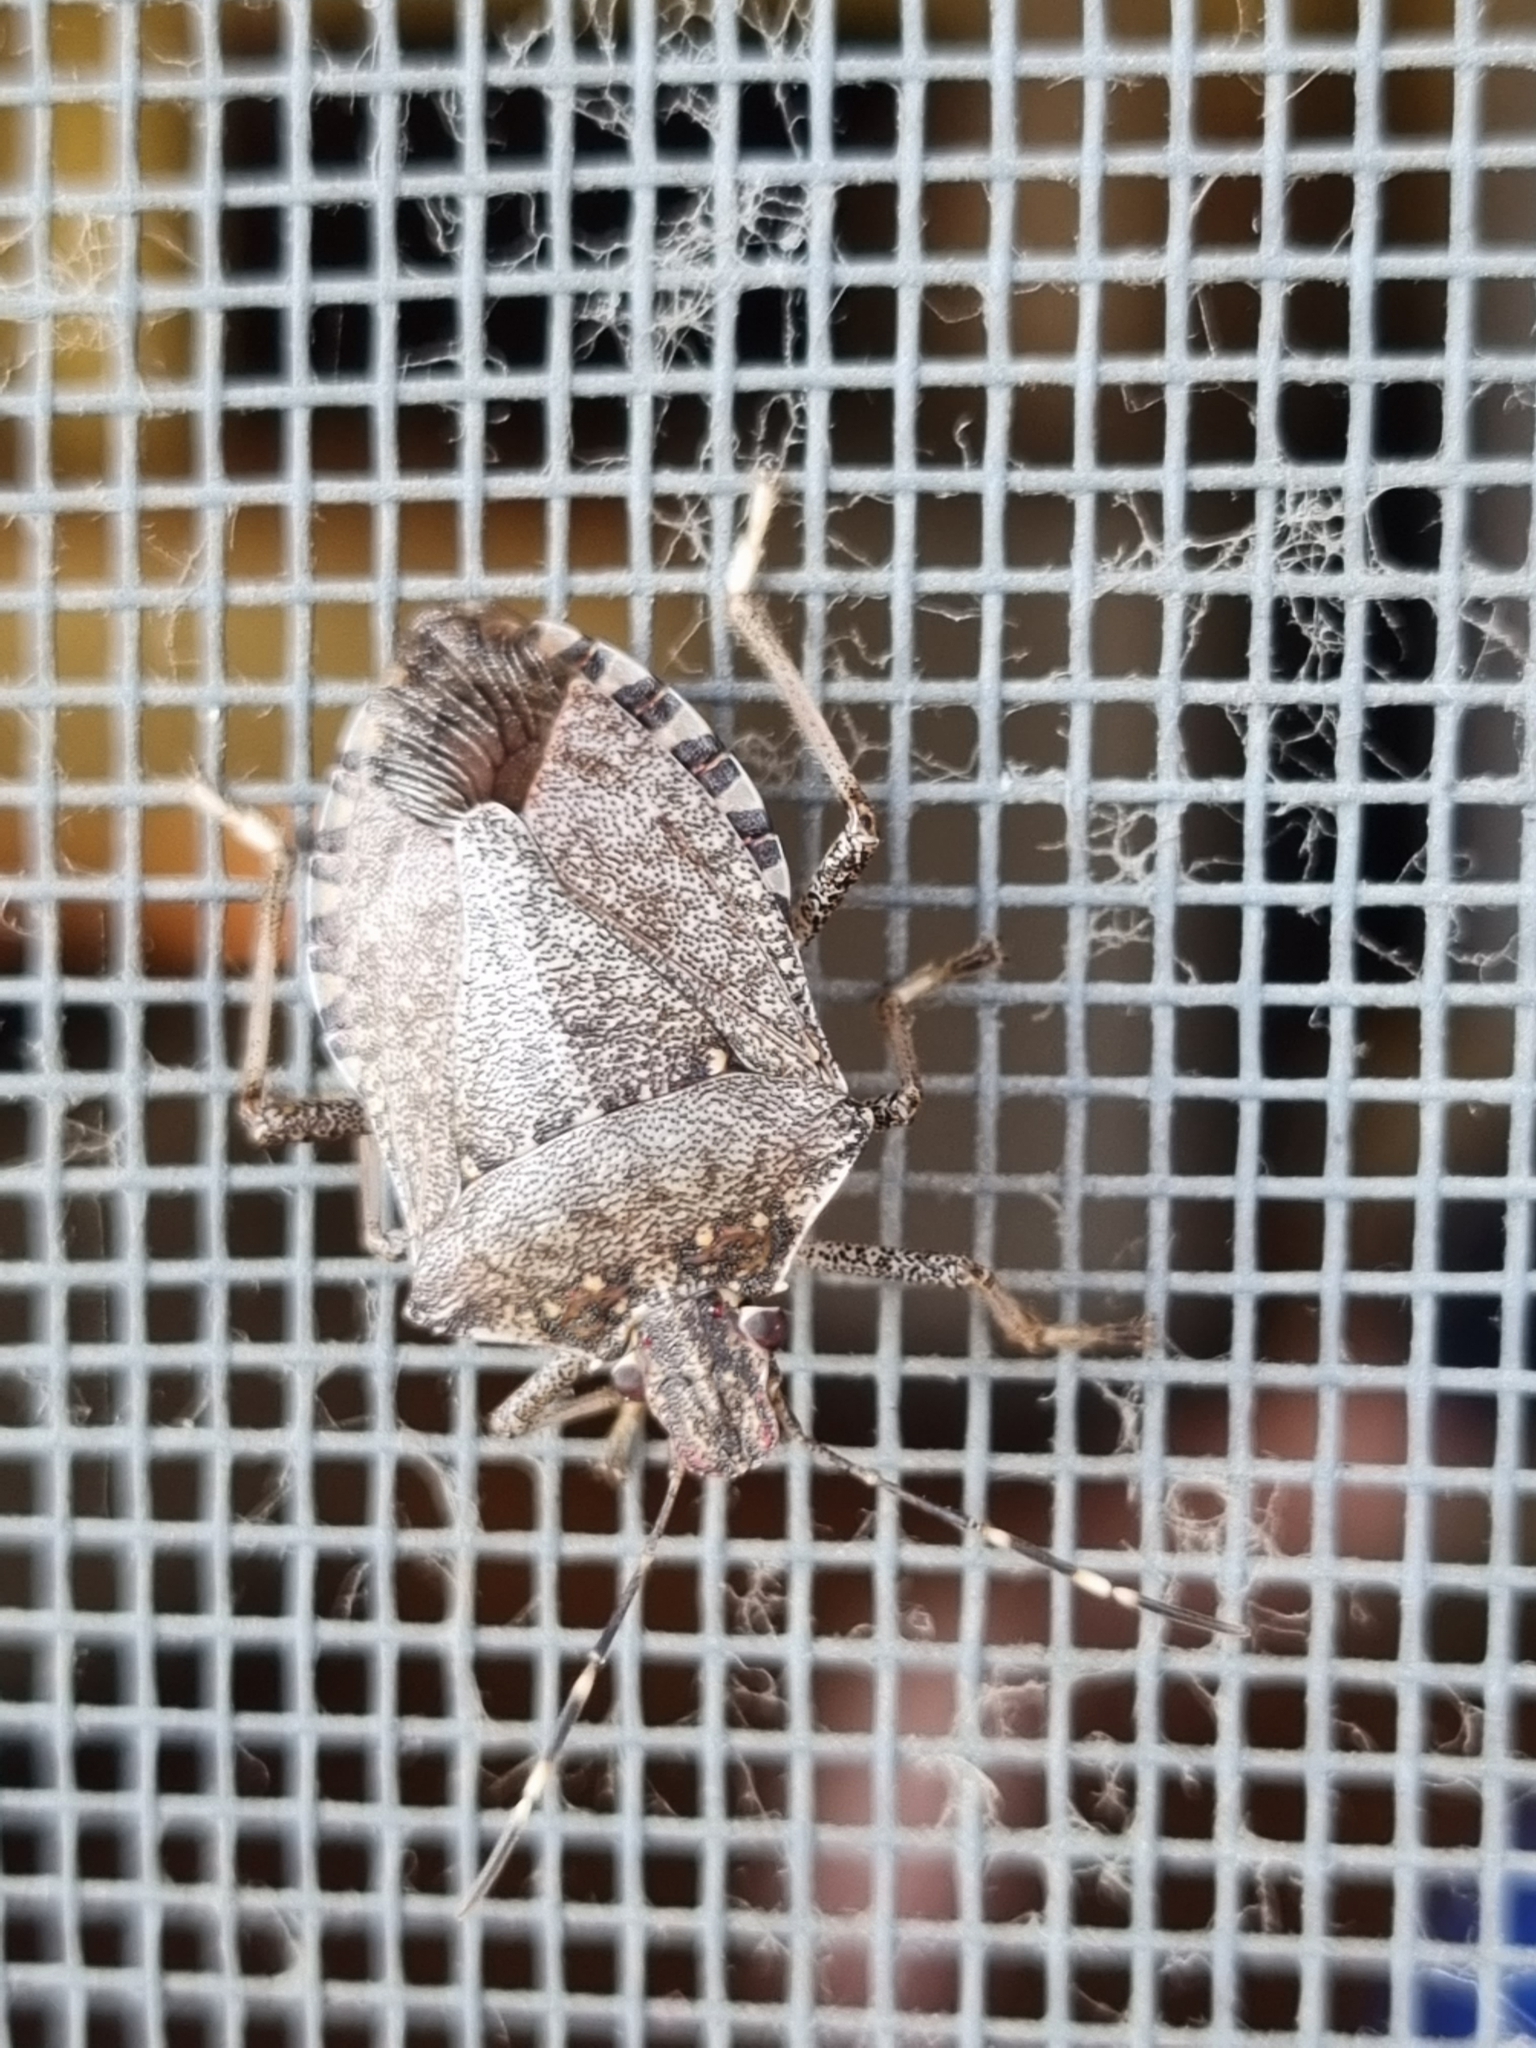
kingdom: Animalia
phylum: Arthropoda
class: Insecta
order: Hemiptera
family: Pentatomidae
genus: Halyomorpha
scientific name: Halyomorpha halys
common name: Brown marmorated stink bug
